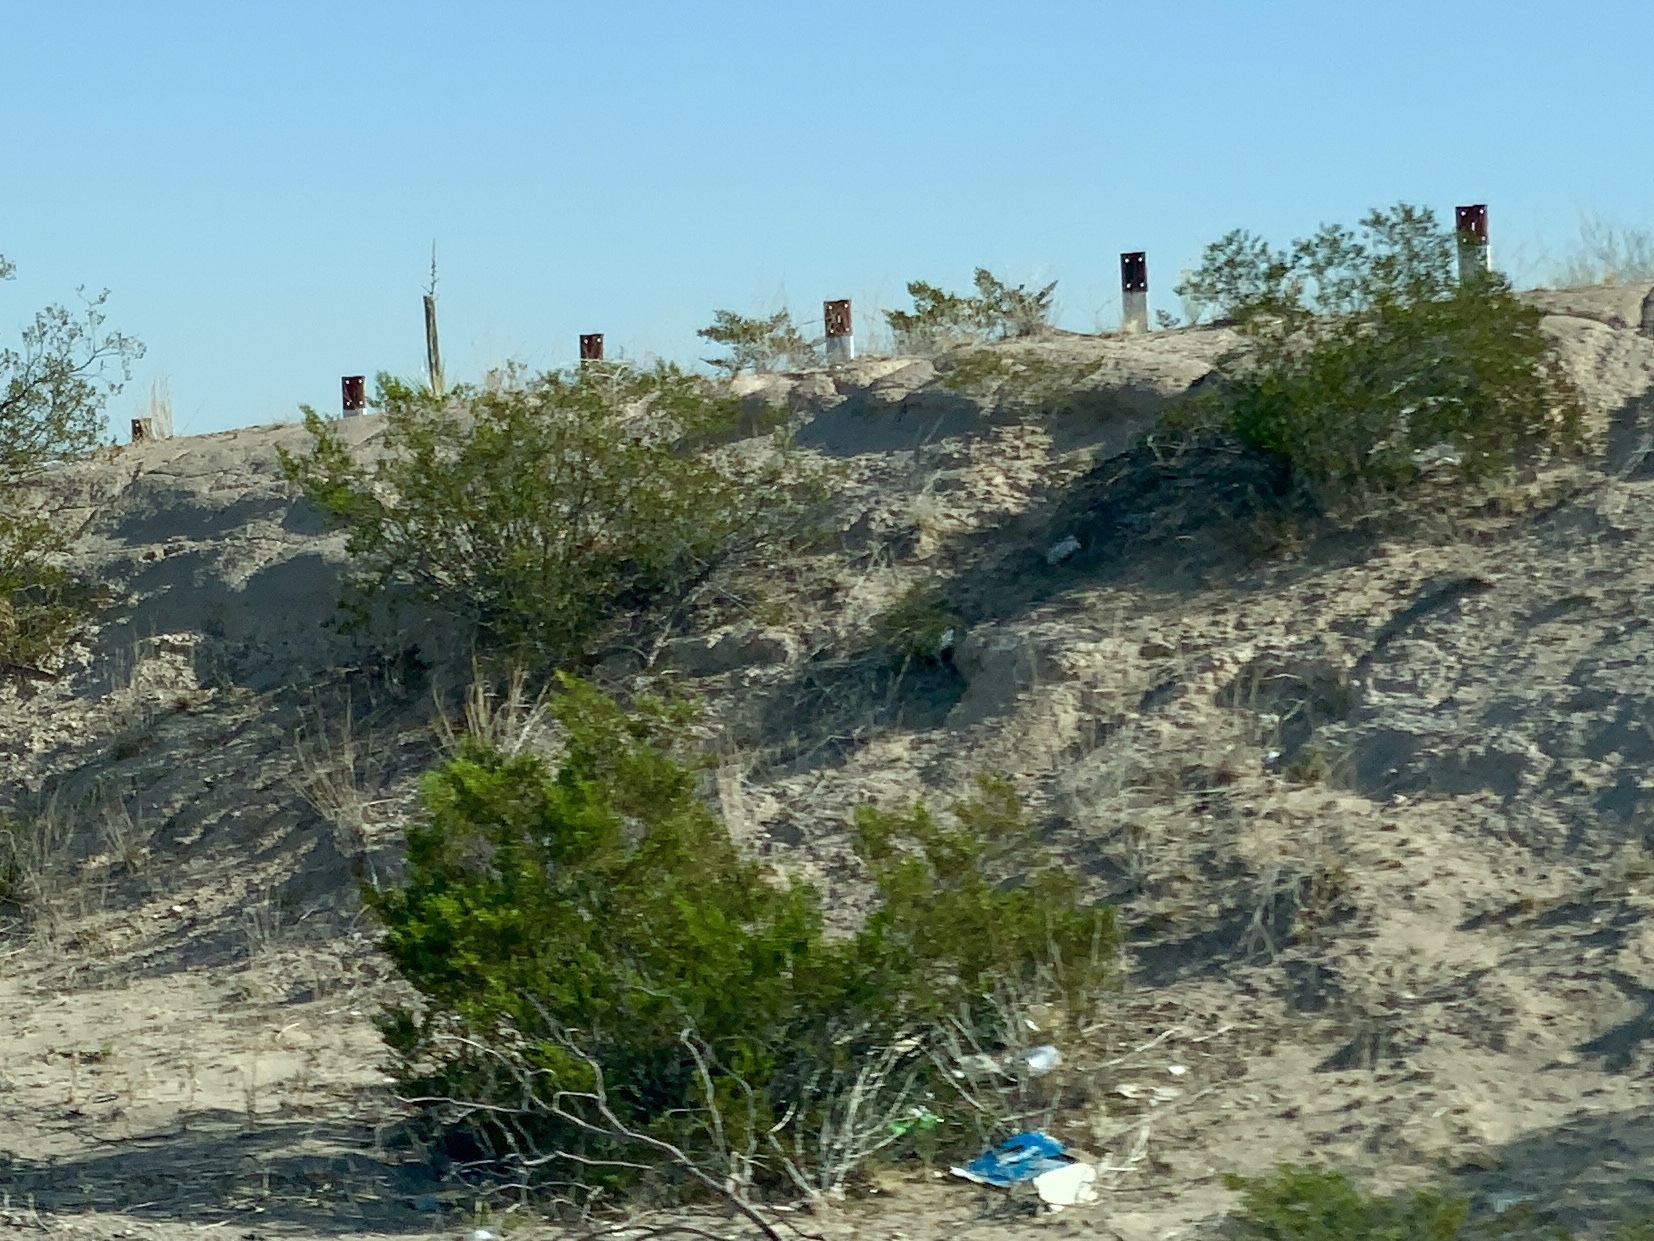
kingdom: Plantae
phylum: Tracheophyta
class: Magnoliopsida
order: Zygophyllales
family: Zygophyllaceae
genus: Larrea
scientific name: Larrea tridentata
